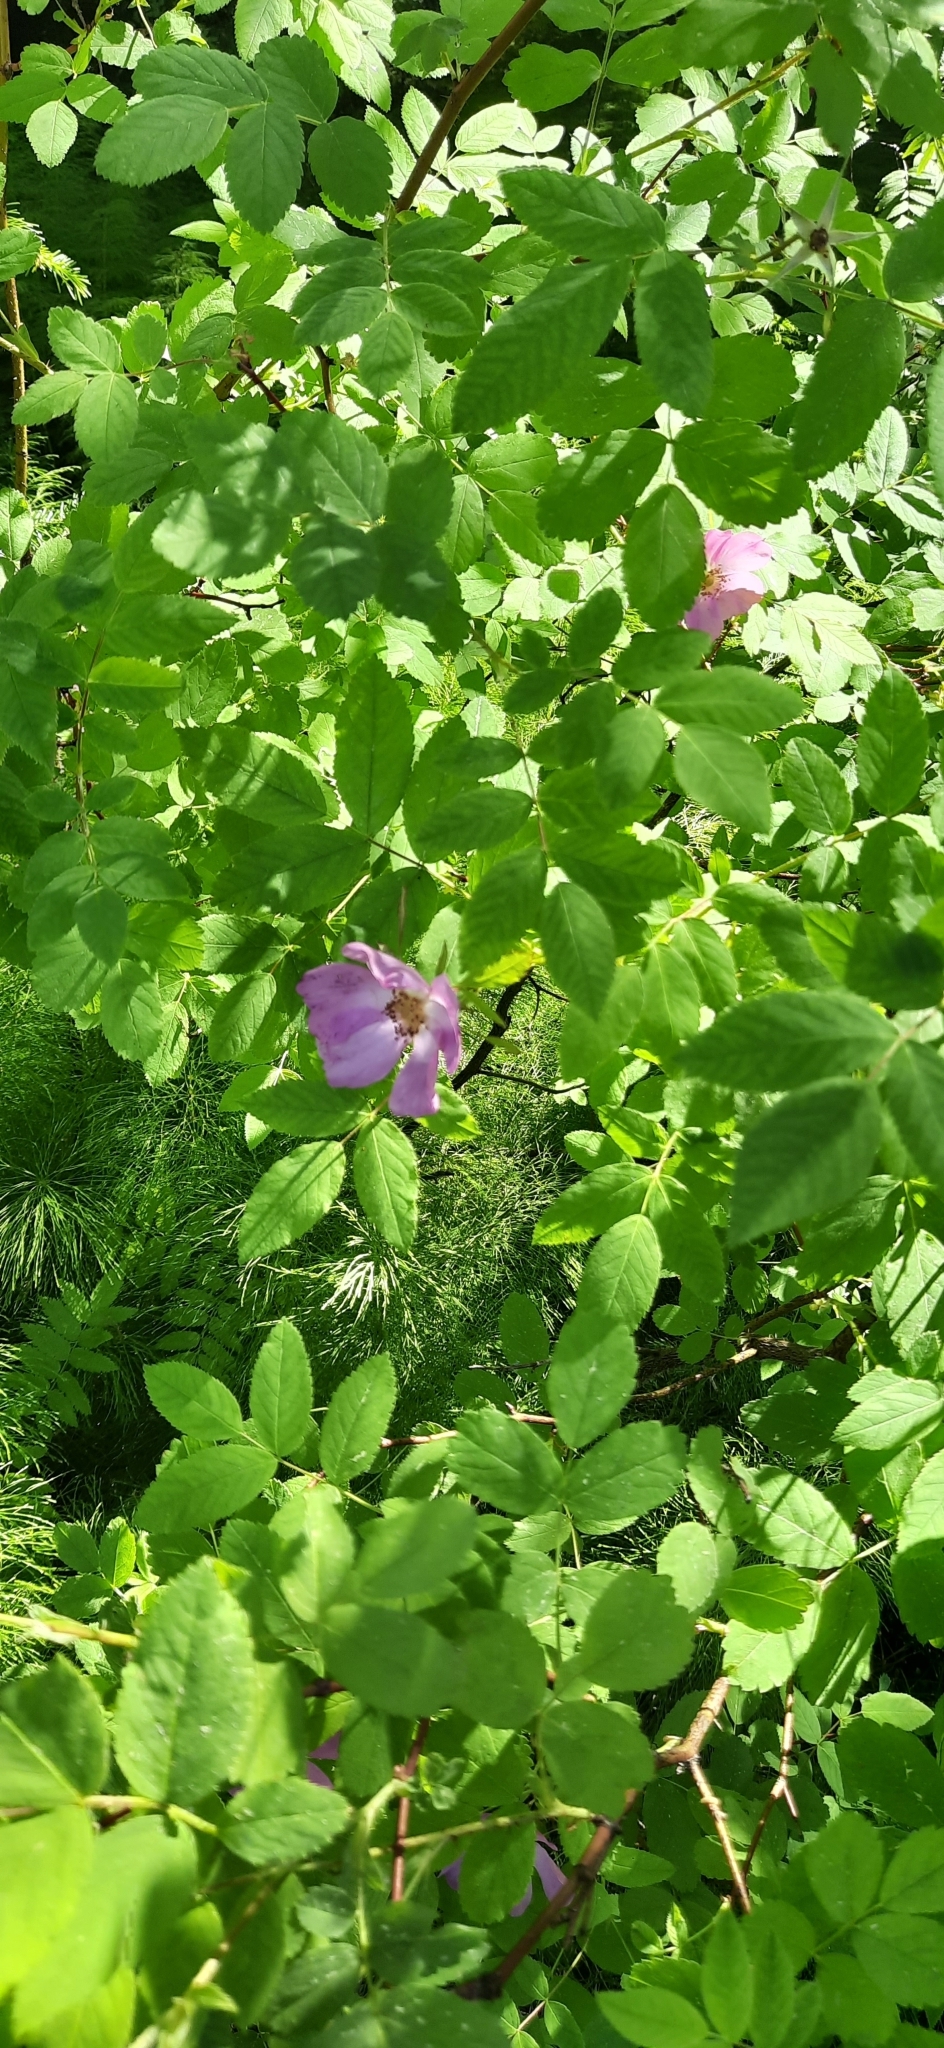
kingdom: Plantae
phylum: Tracheophyta
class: Magnoliopsida
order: Rosales
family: Rosaceae
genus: Rosa
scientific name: Rosa majalis
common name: Cinnamon rose
